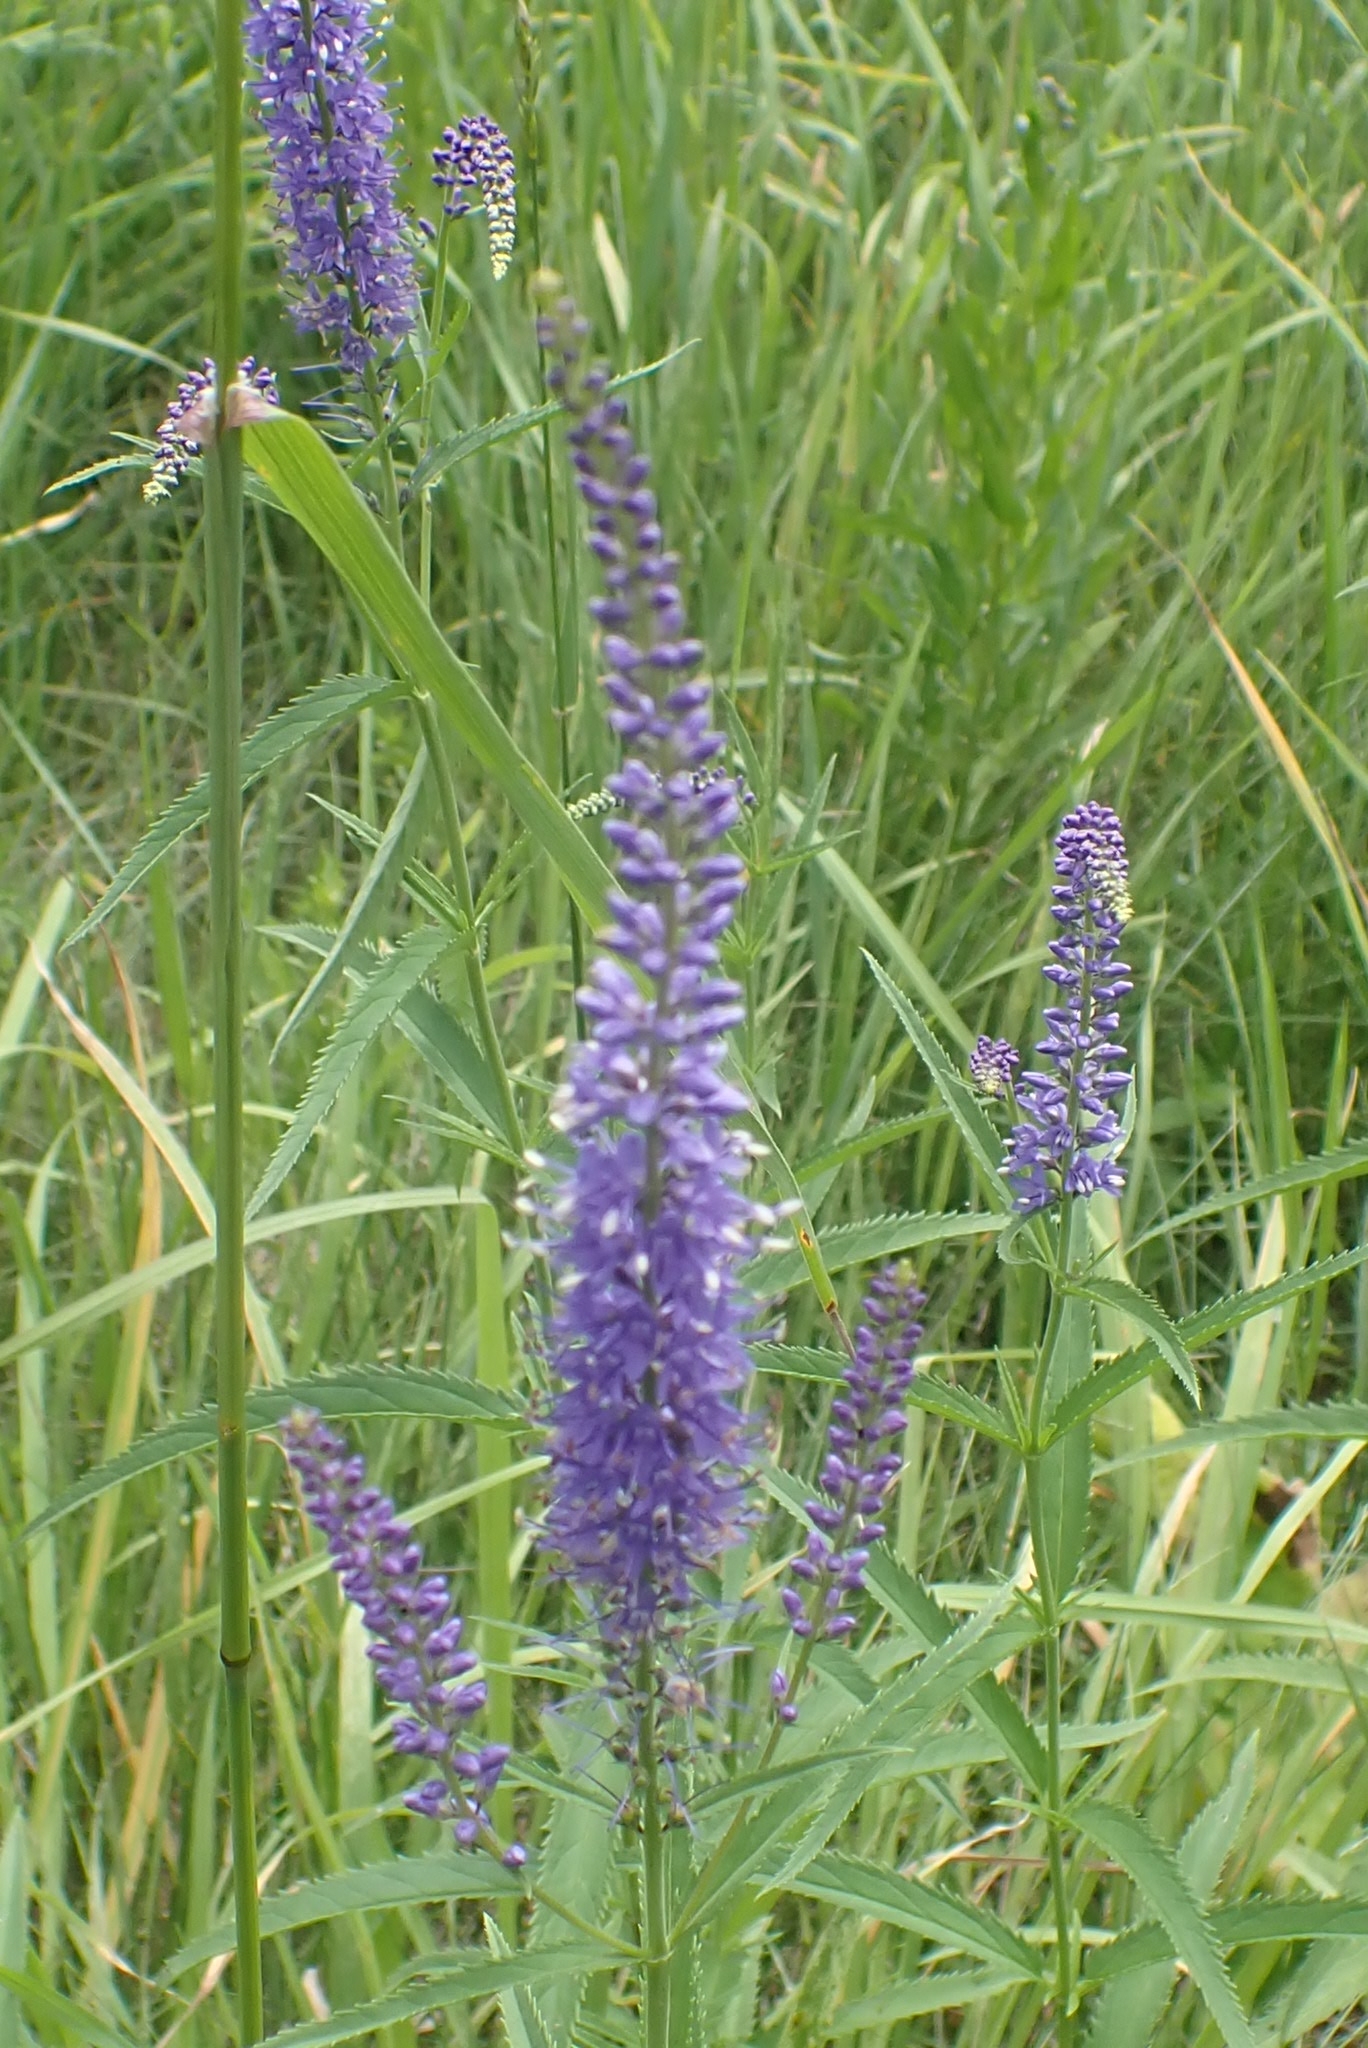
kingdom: Plantae
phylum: Tracheophyta
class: Magnoliopsida
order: Lamiales
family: Plantaginaceae
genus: Veronica
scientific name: Veronica longifolia
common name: Garden speedwell
